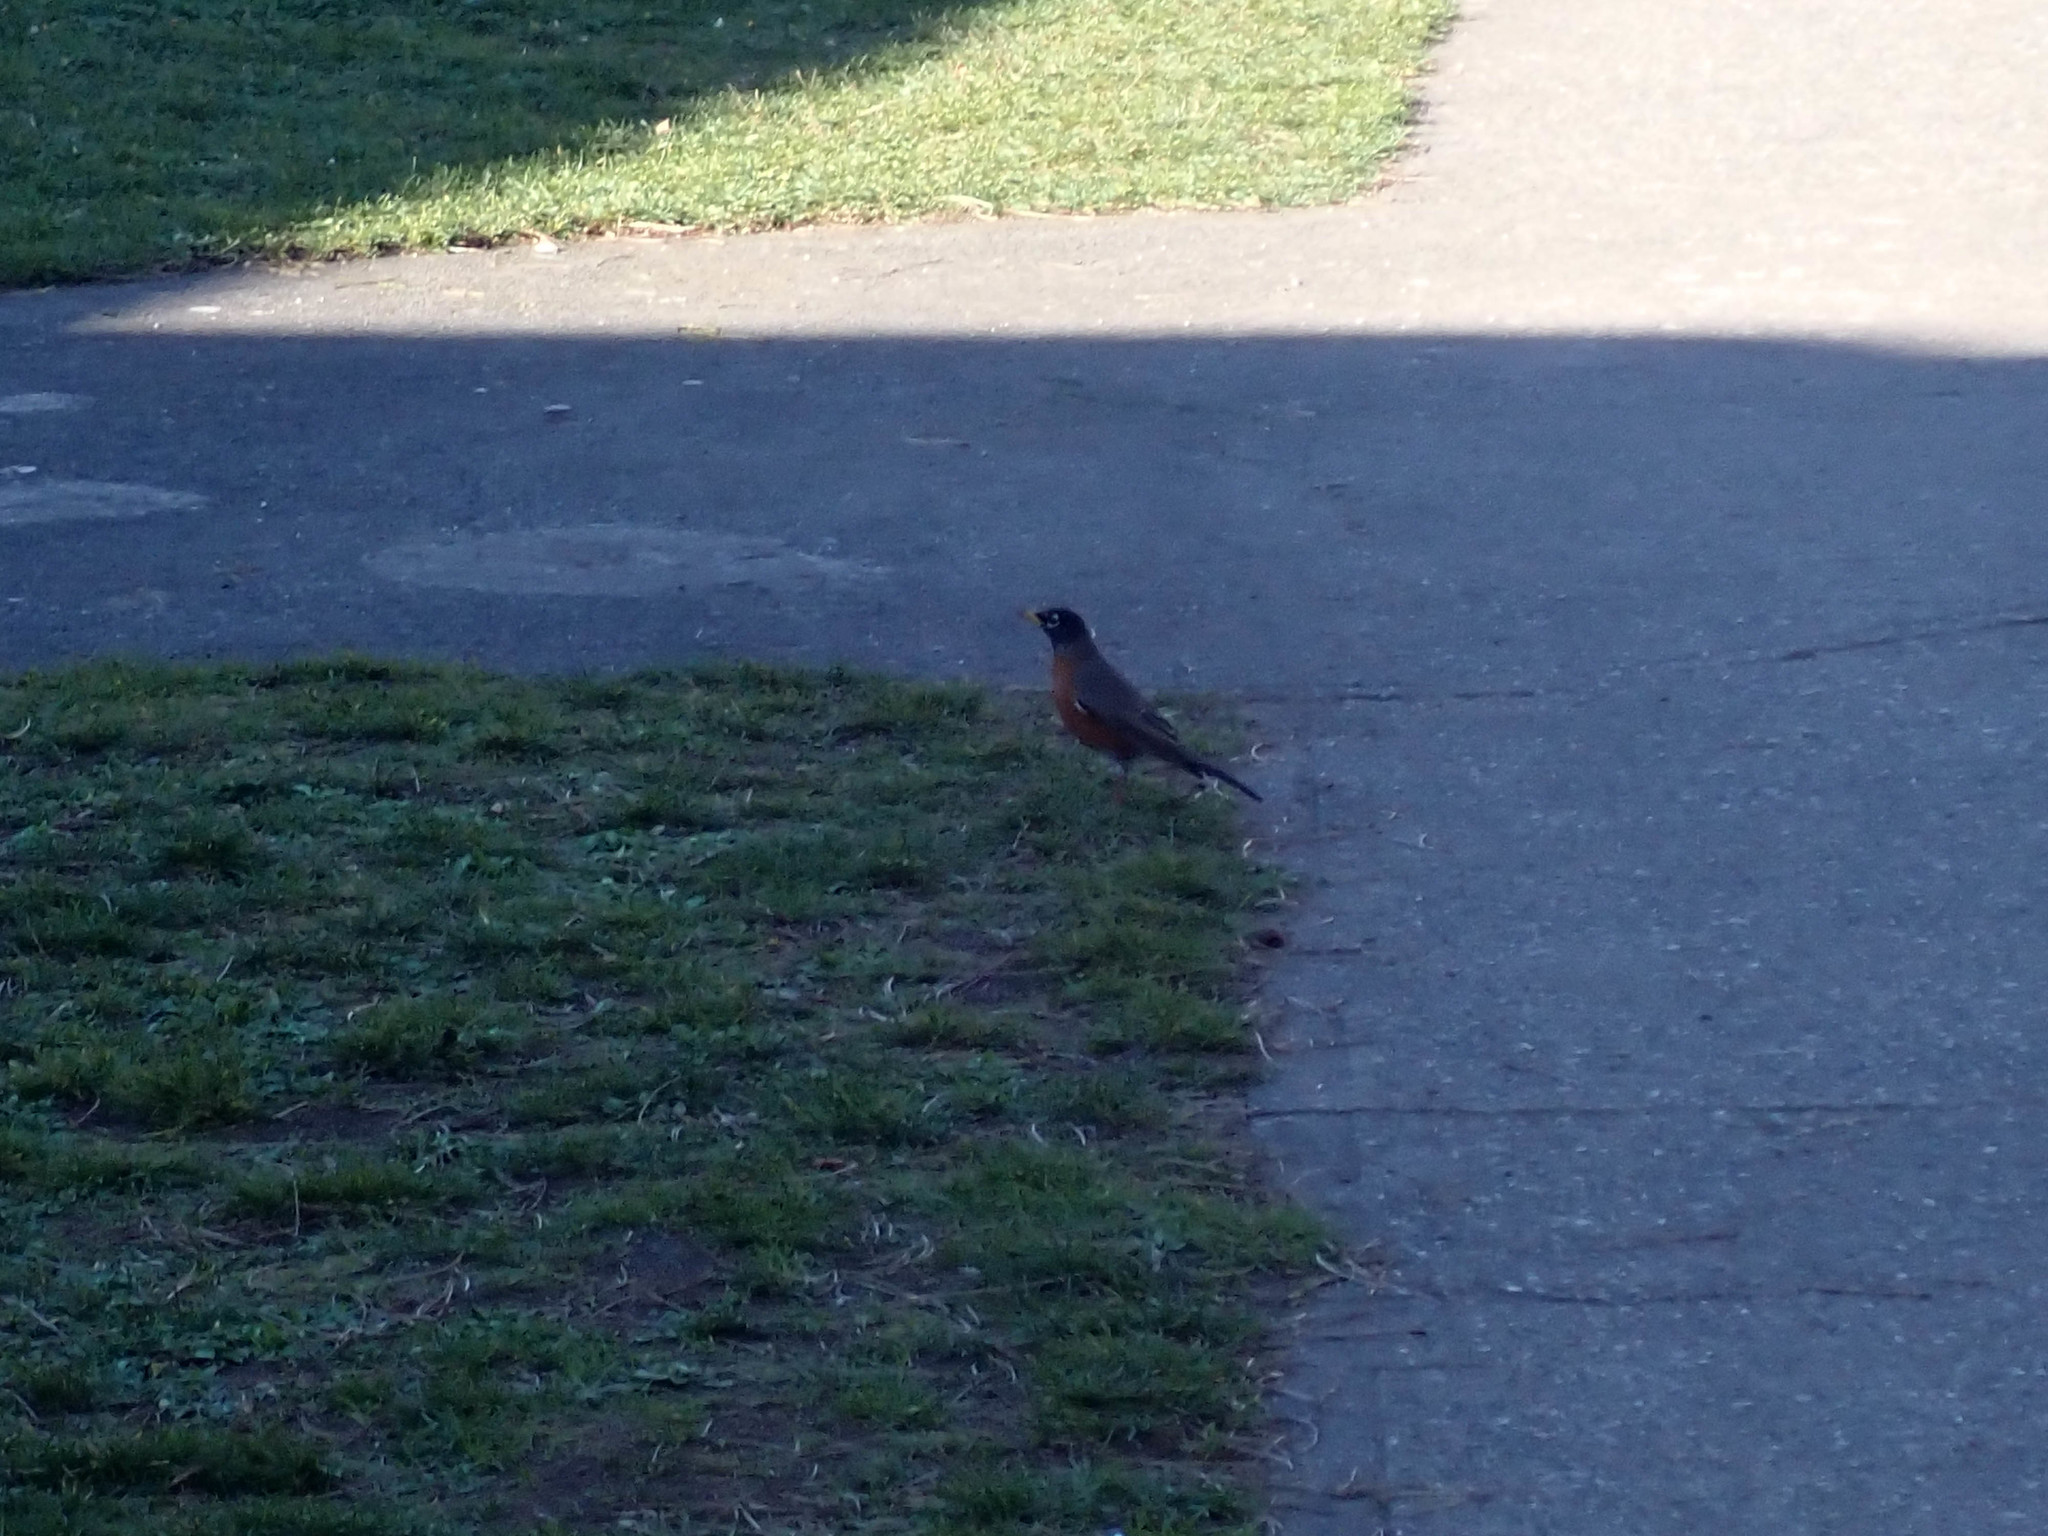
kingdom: Animalia
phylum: Chordata
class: Aves
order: Passeriformes
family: Turdidae
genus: Turdus
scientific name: Turdus migratorius
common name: American robin
